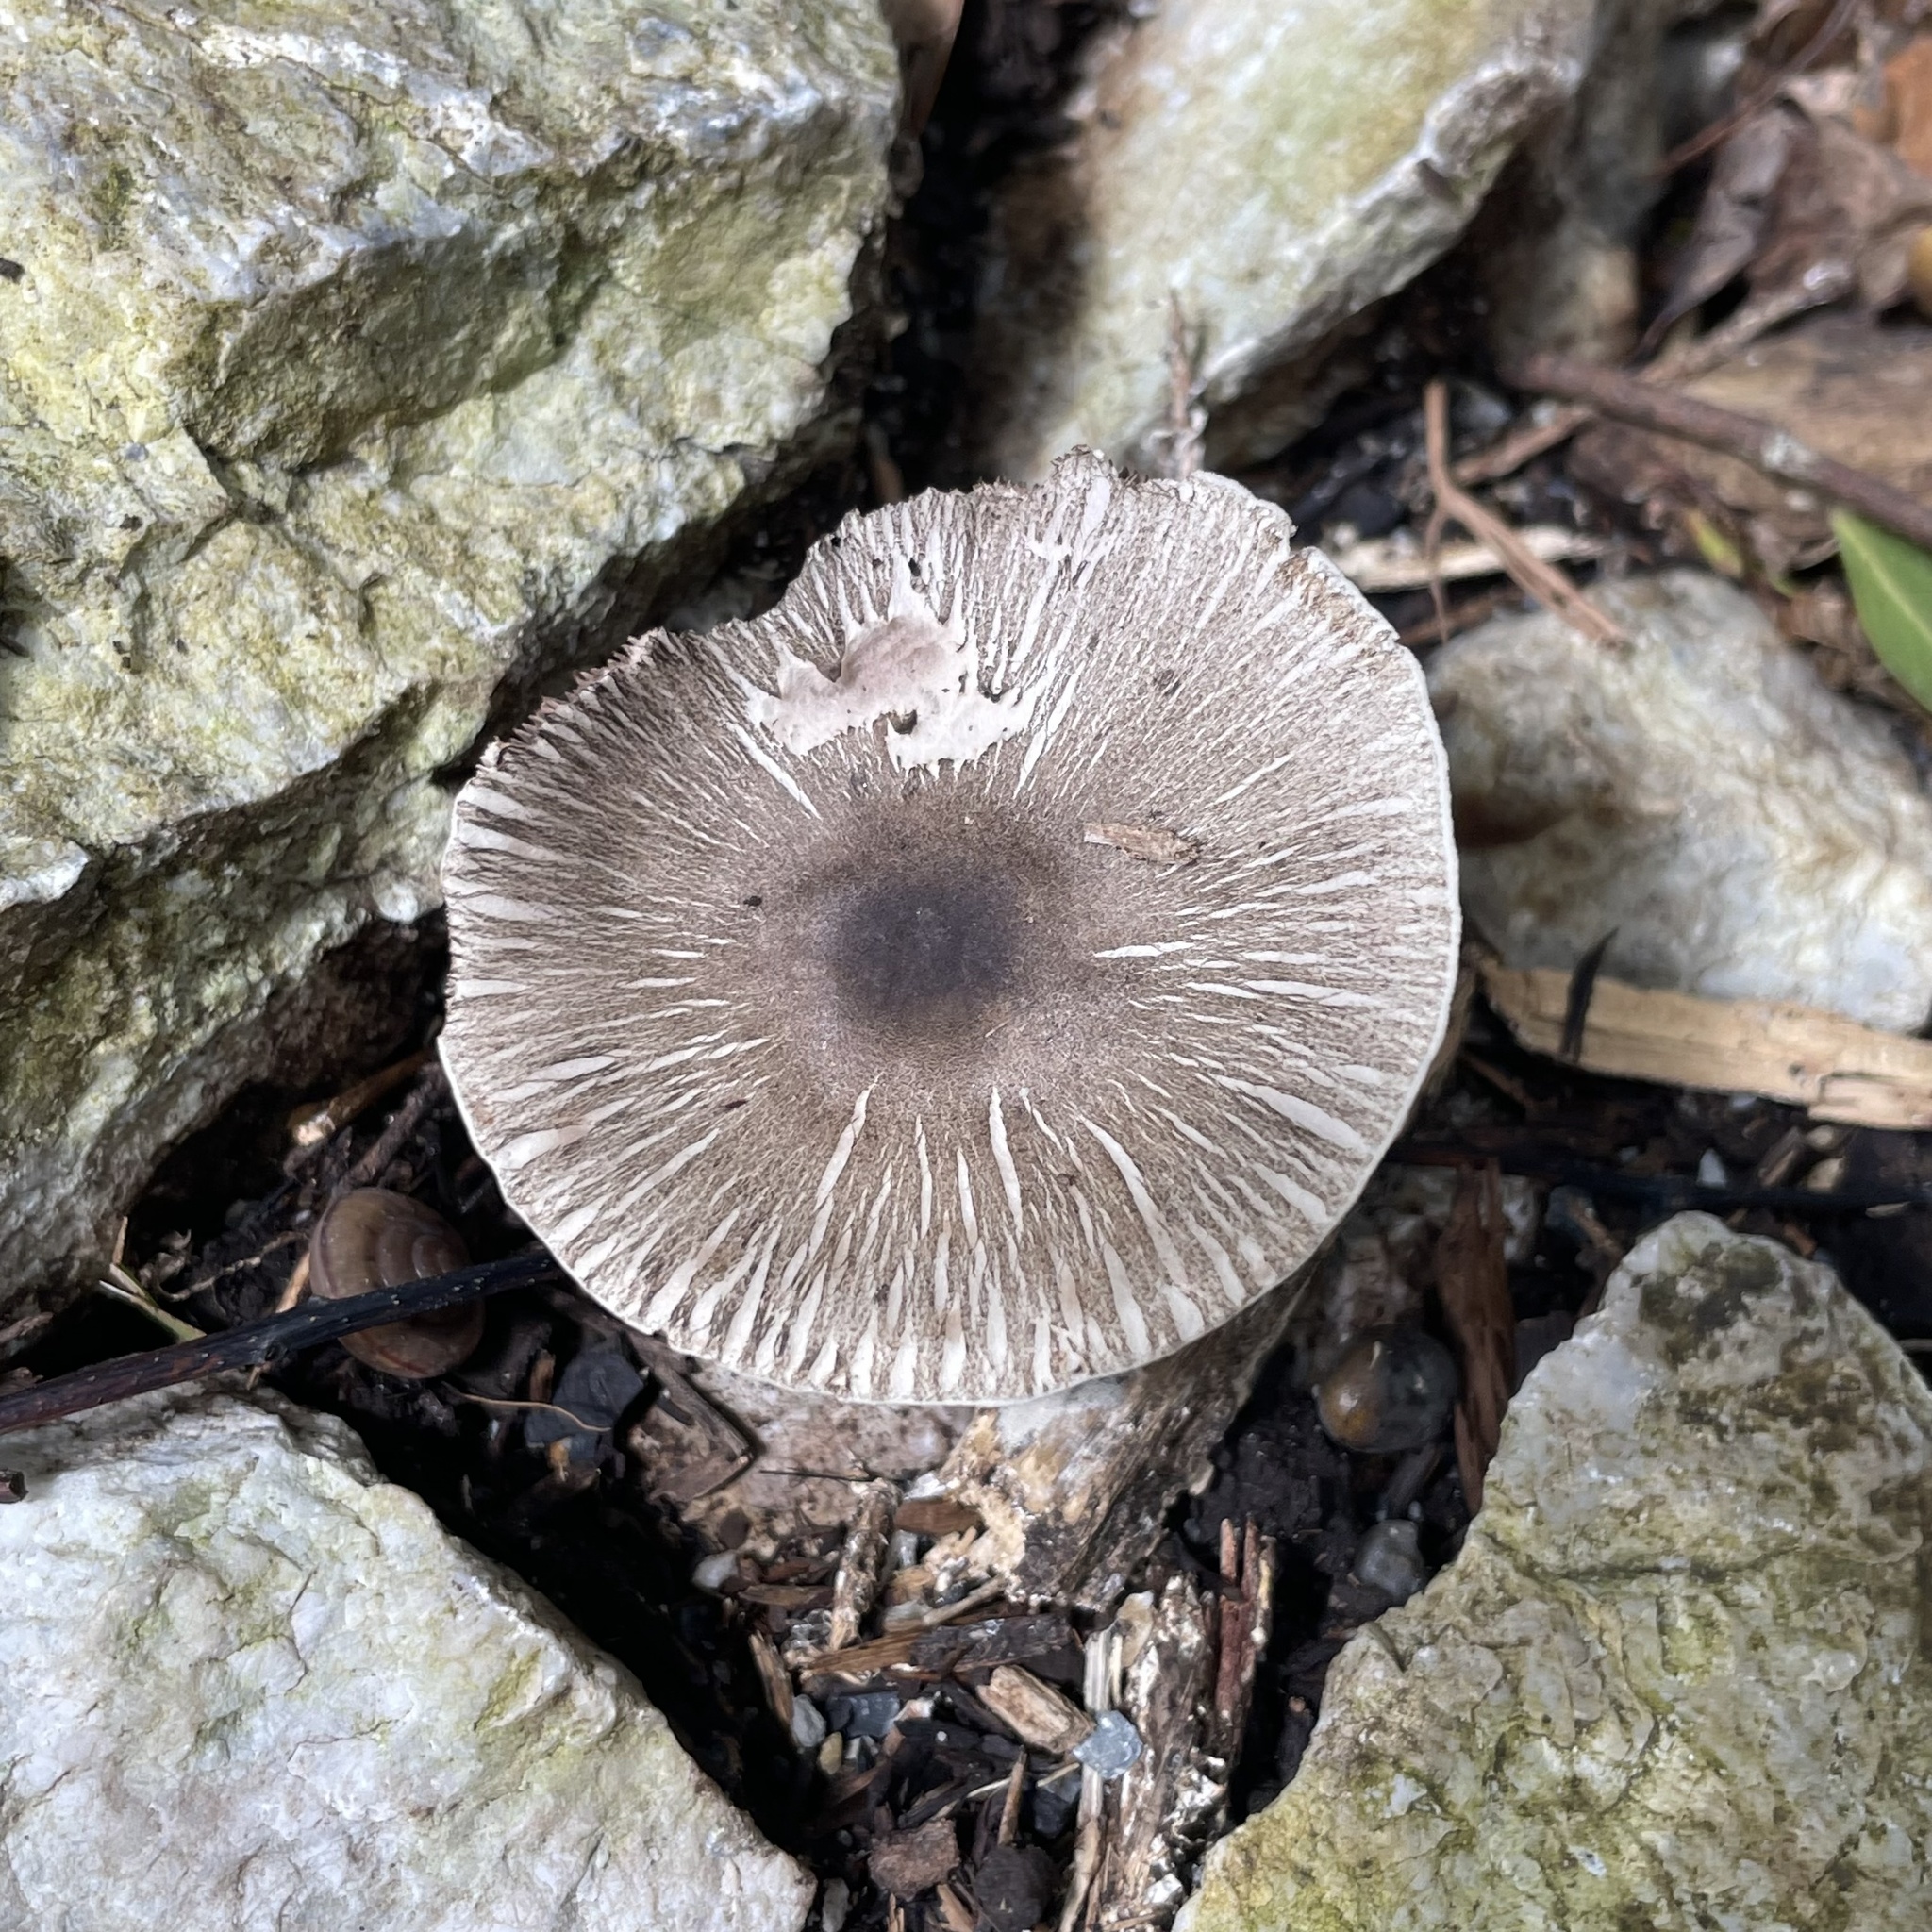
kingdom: Fungi
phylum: Basidiomycota
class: Agaricomycetes
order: Agaricales
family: Agaricaceae
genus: Agaricus
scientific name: Agaricus moelleri
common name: Inky mushroom
